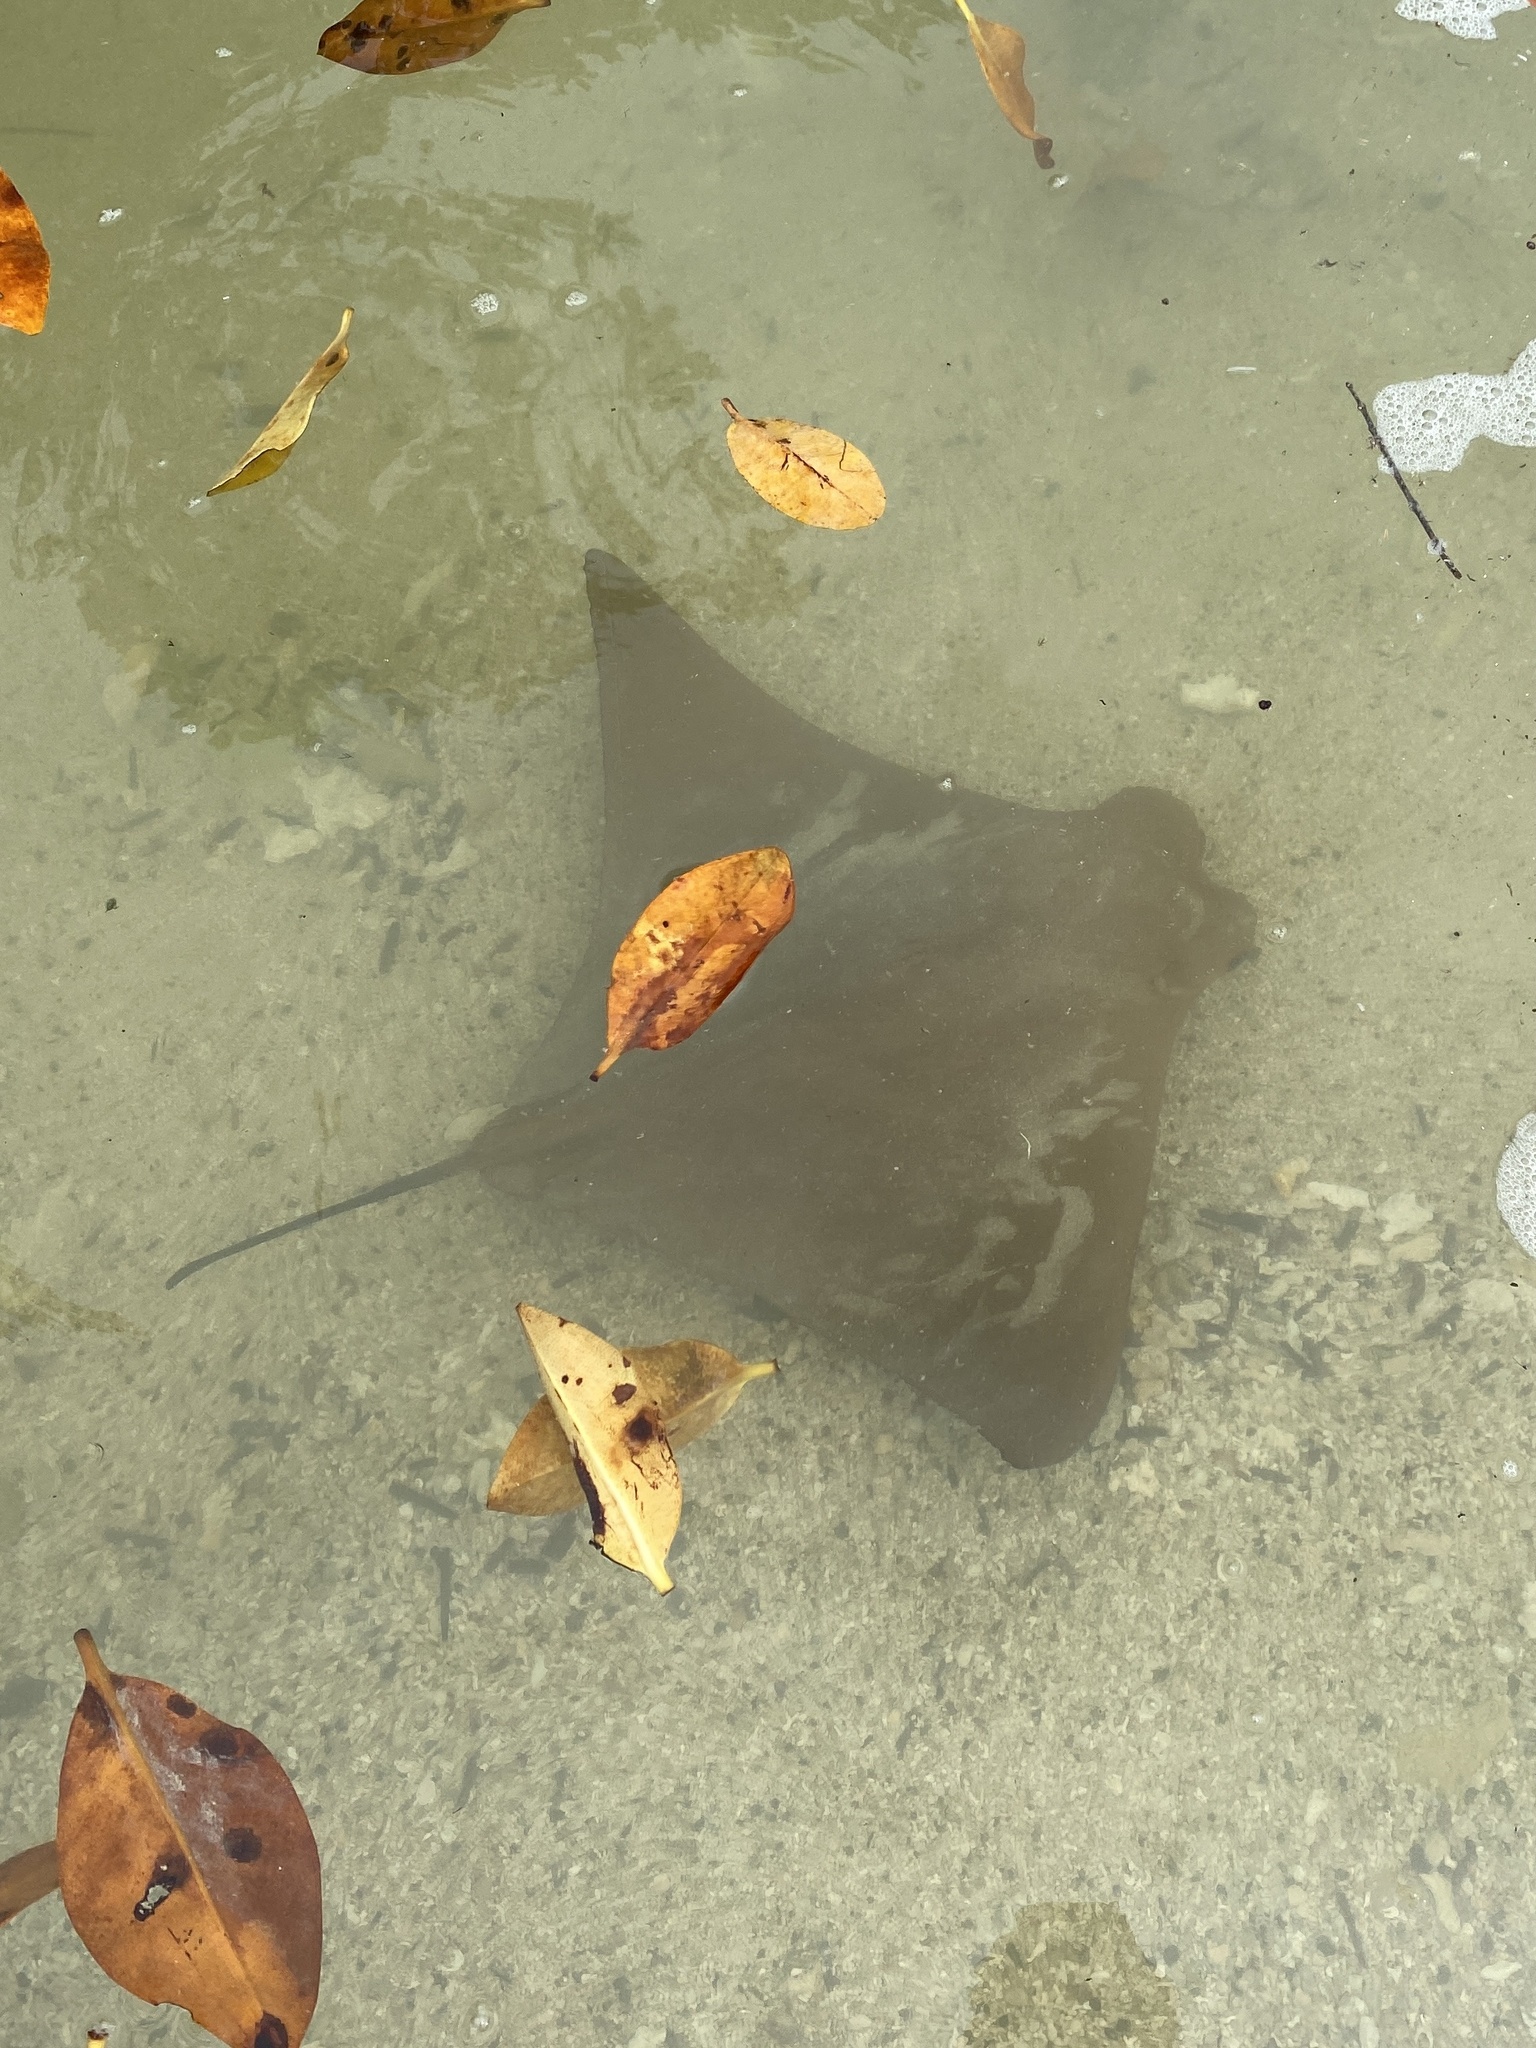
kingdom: Animalia
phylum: Chordata
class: Elasmobranchii
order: Myliobatiformes
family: Myliobatidae
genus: Rhinoptera
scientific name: Rhinoptera steindachneri
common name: Golden cownose ray
